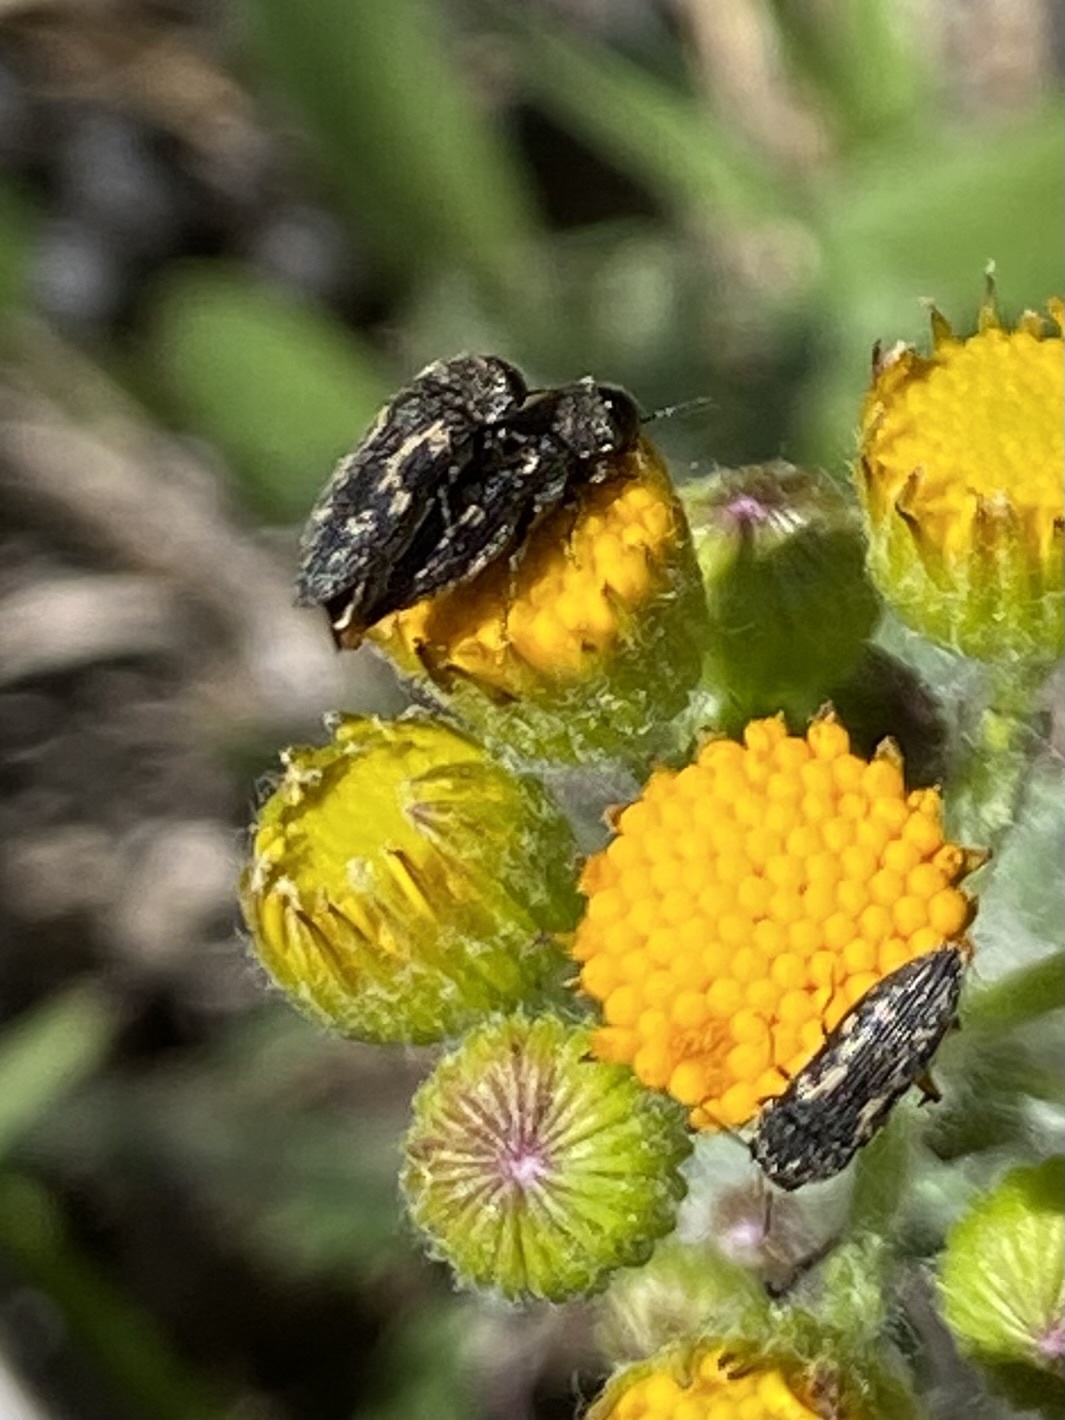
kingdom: Animalia
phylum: Arthropoda
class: Insecta
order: Coleoptera
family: Buprestidae
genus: Acmaeodera
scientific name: Acmaeodera neglecta
